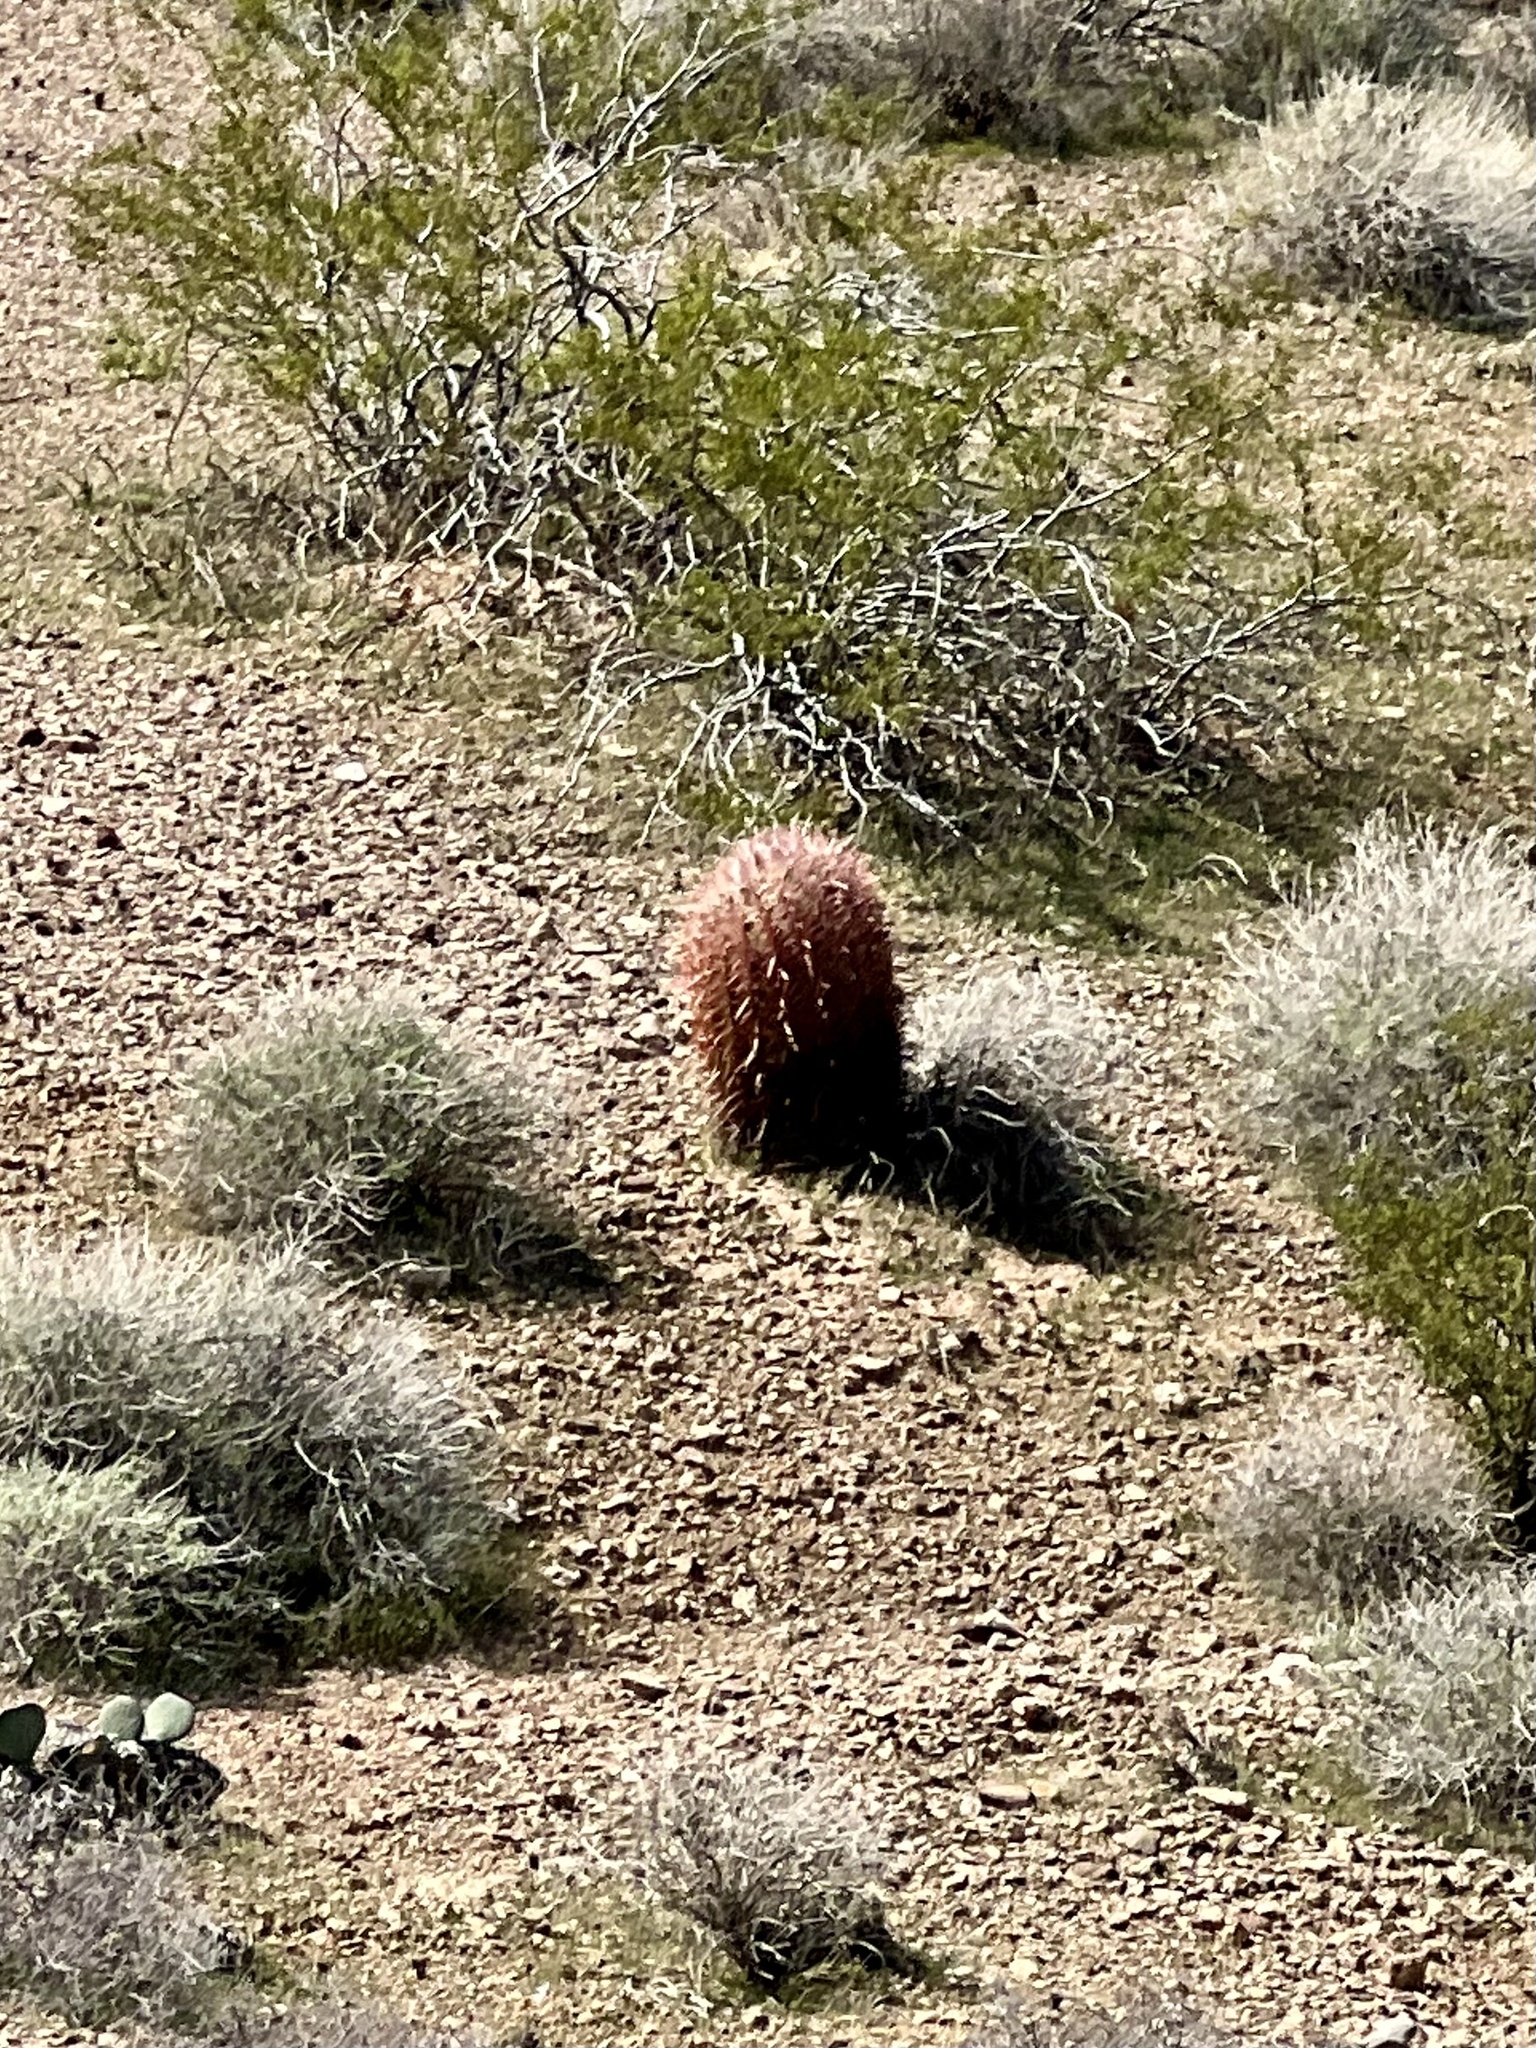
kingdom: Plantae
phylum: Tracheophyta
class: Magnoliopsida
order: Caryophyllales
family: Cactaceae
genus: Ferocactus
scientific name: Ferocactus cylindraceus
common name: California barrel cactus
